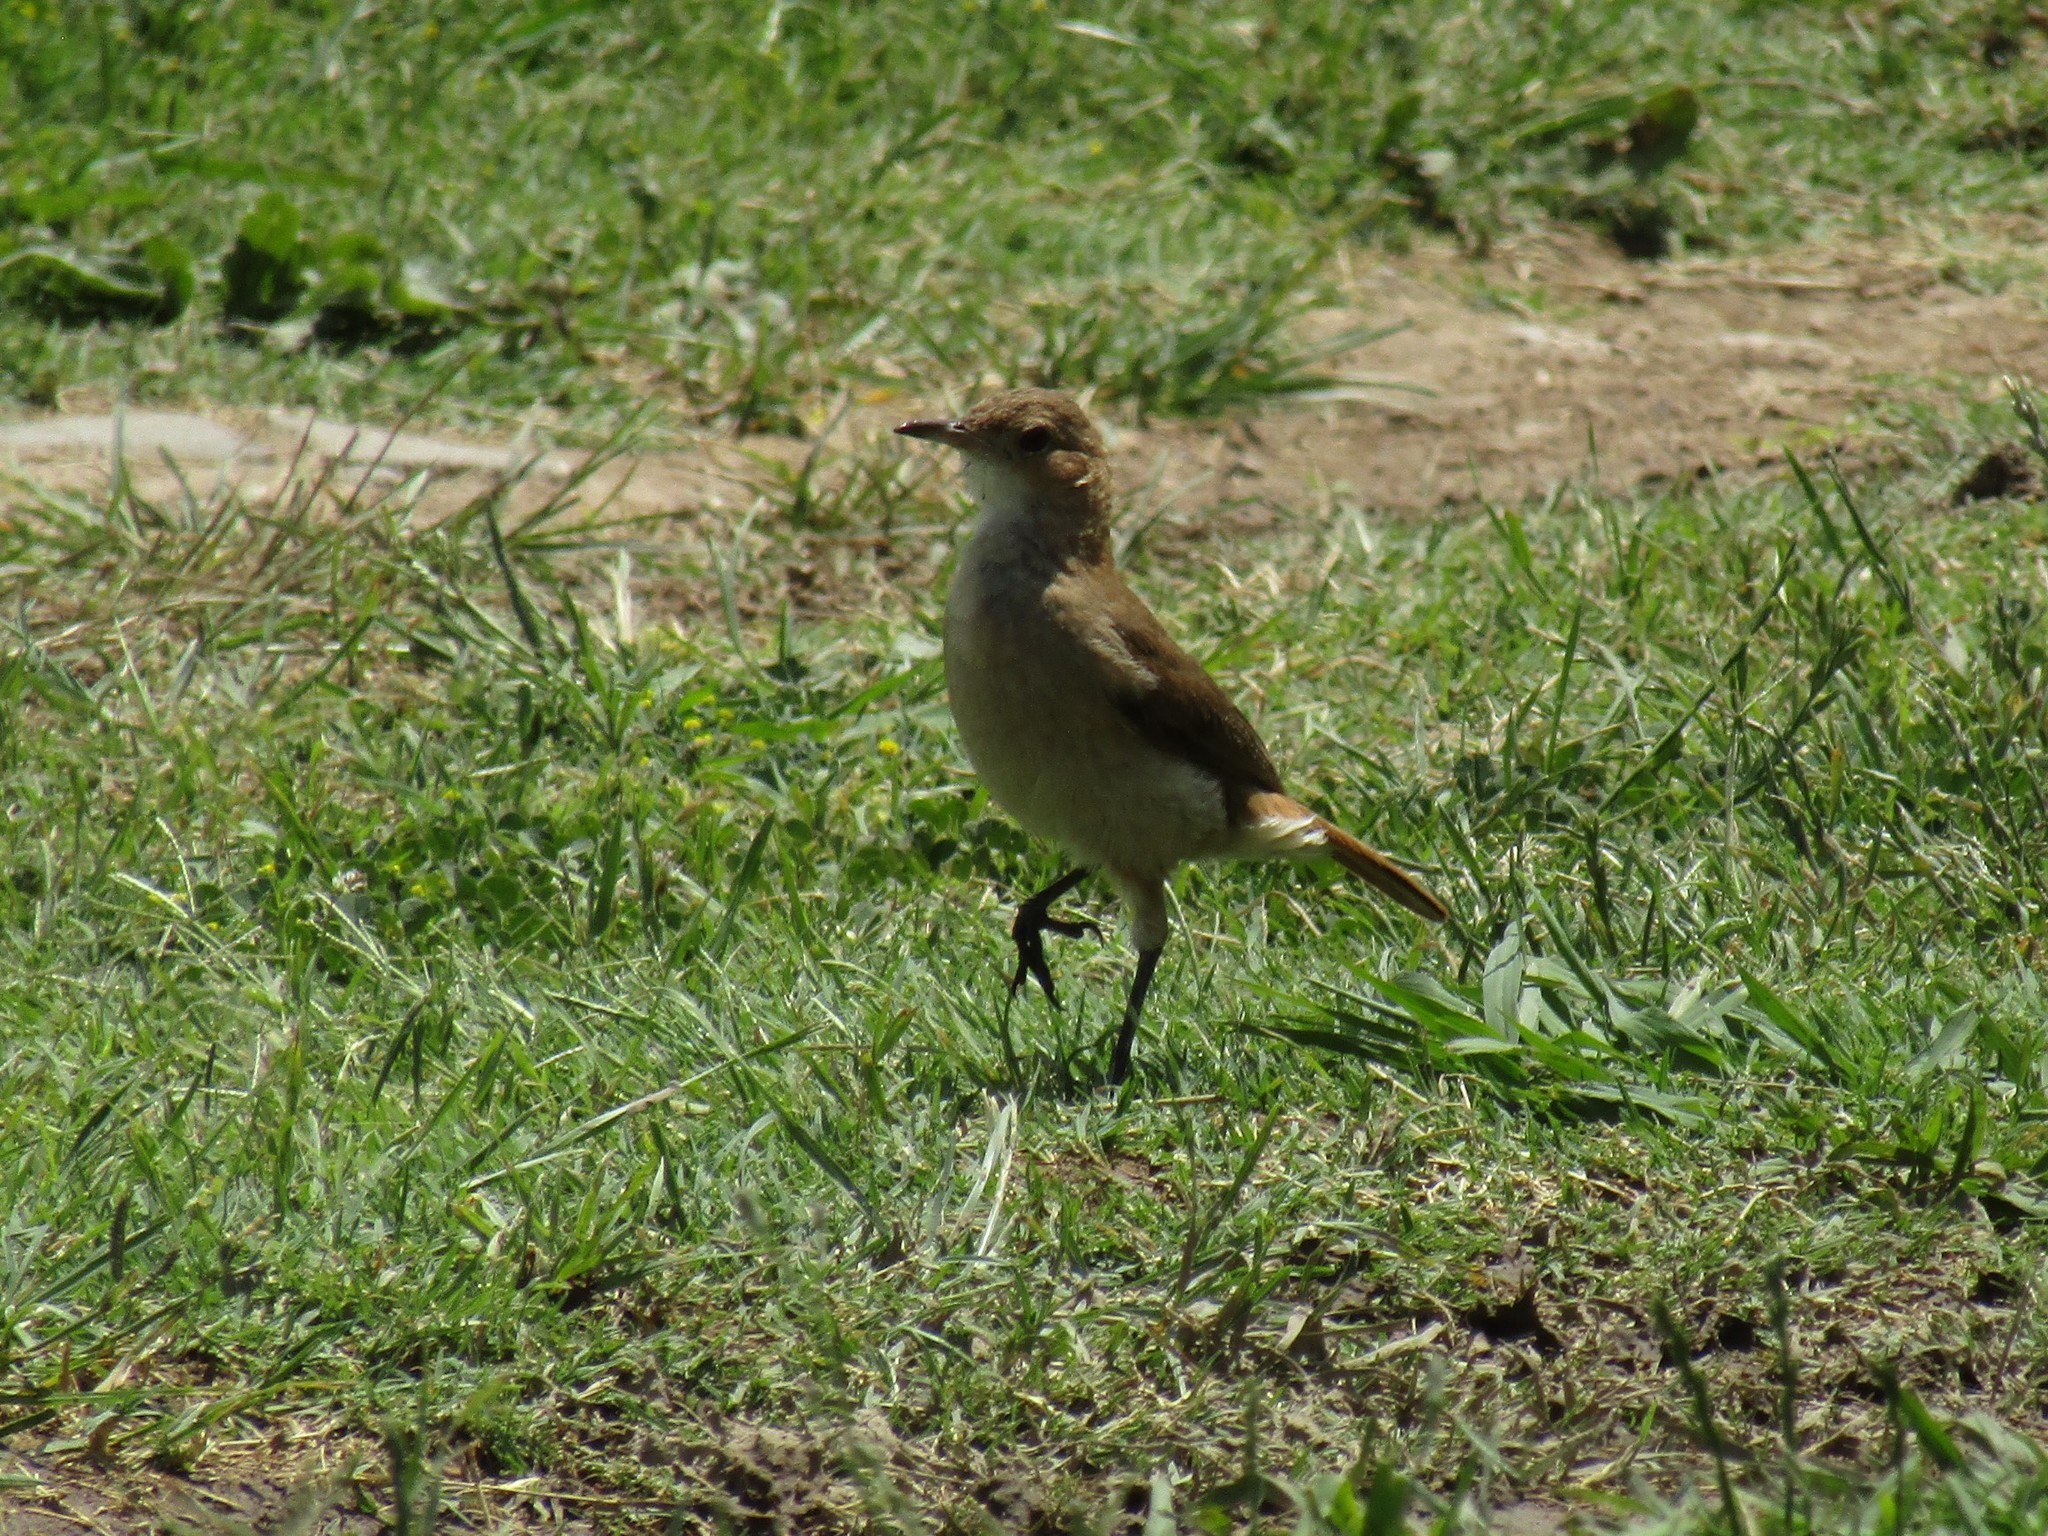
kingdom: Animalia
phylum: Chordata
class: Aves
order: Passeriformes
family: Furnariidae
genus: Furnarius
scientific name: Furnarius rufus
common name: Rufous hornero
